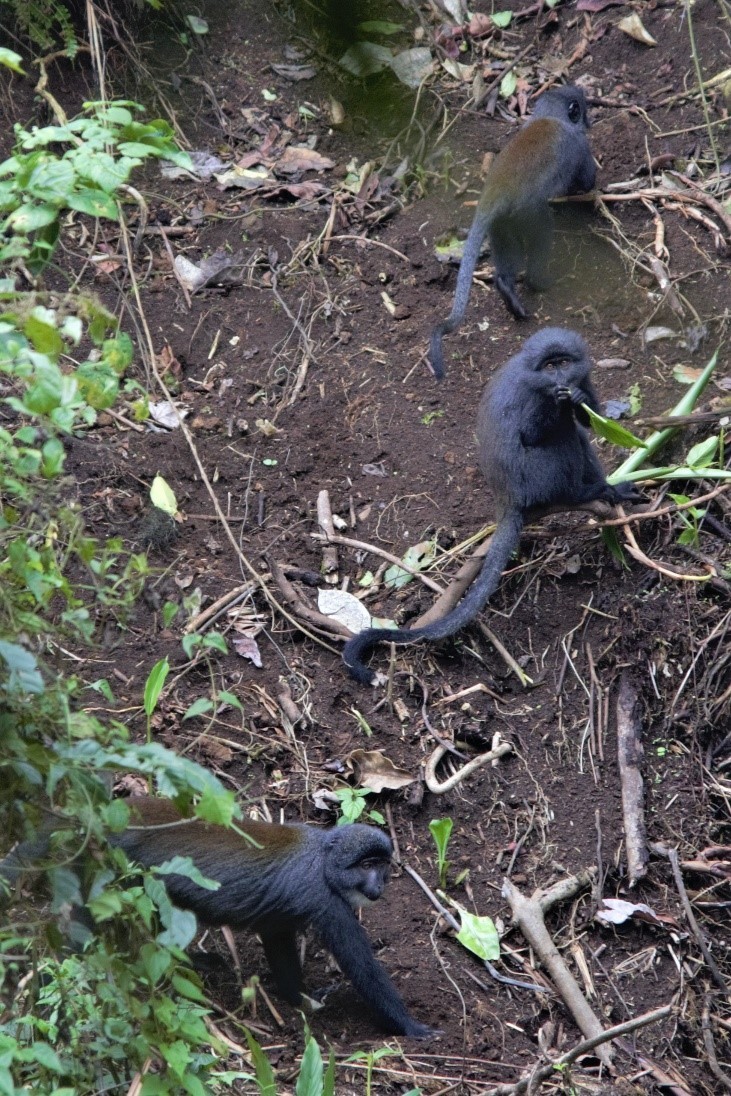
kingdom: Animalia
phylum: Chordata
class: Mammalia
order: Primates
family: Cercopithecidae
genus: Allochrocebus
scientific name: Allochrocebus preussi
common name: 1898)
